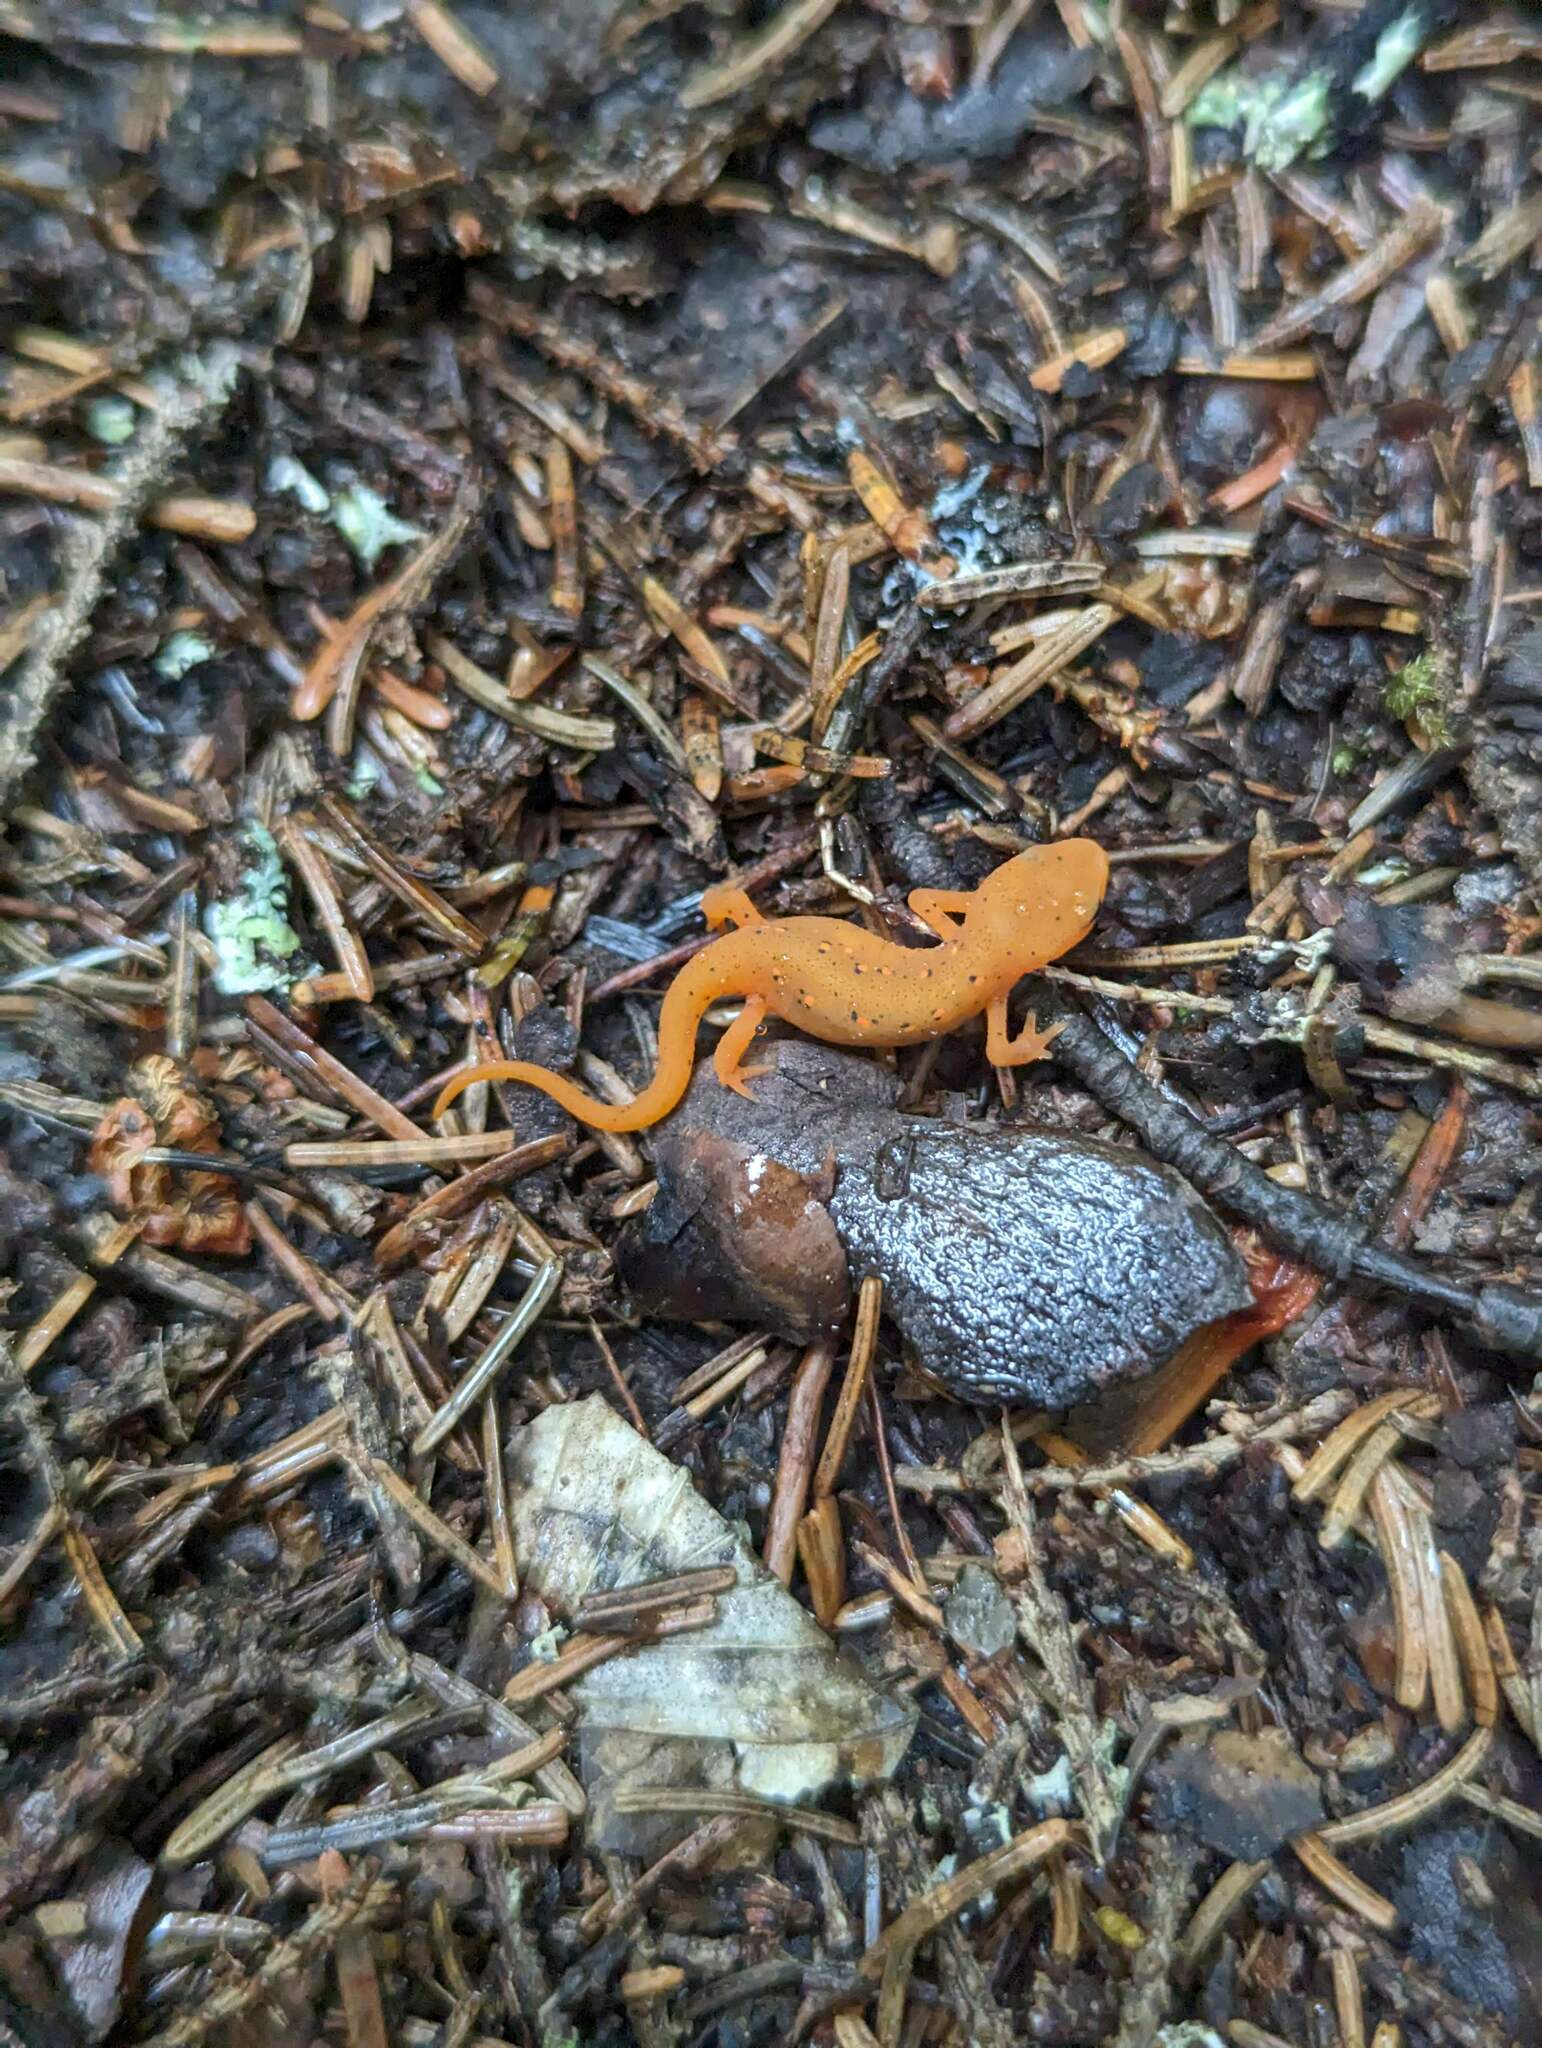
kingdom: Animalia
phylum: Chordata
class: Amphibia
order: Caudata
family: Salamandridae
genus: Notophthalmus
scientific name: Notophthalmus viridescens
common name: Eastern newt
